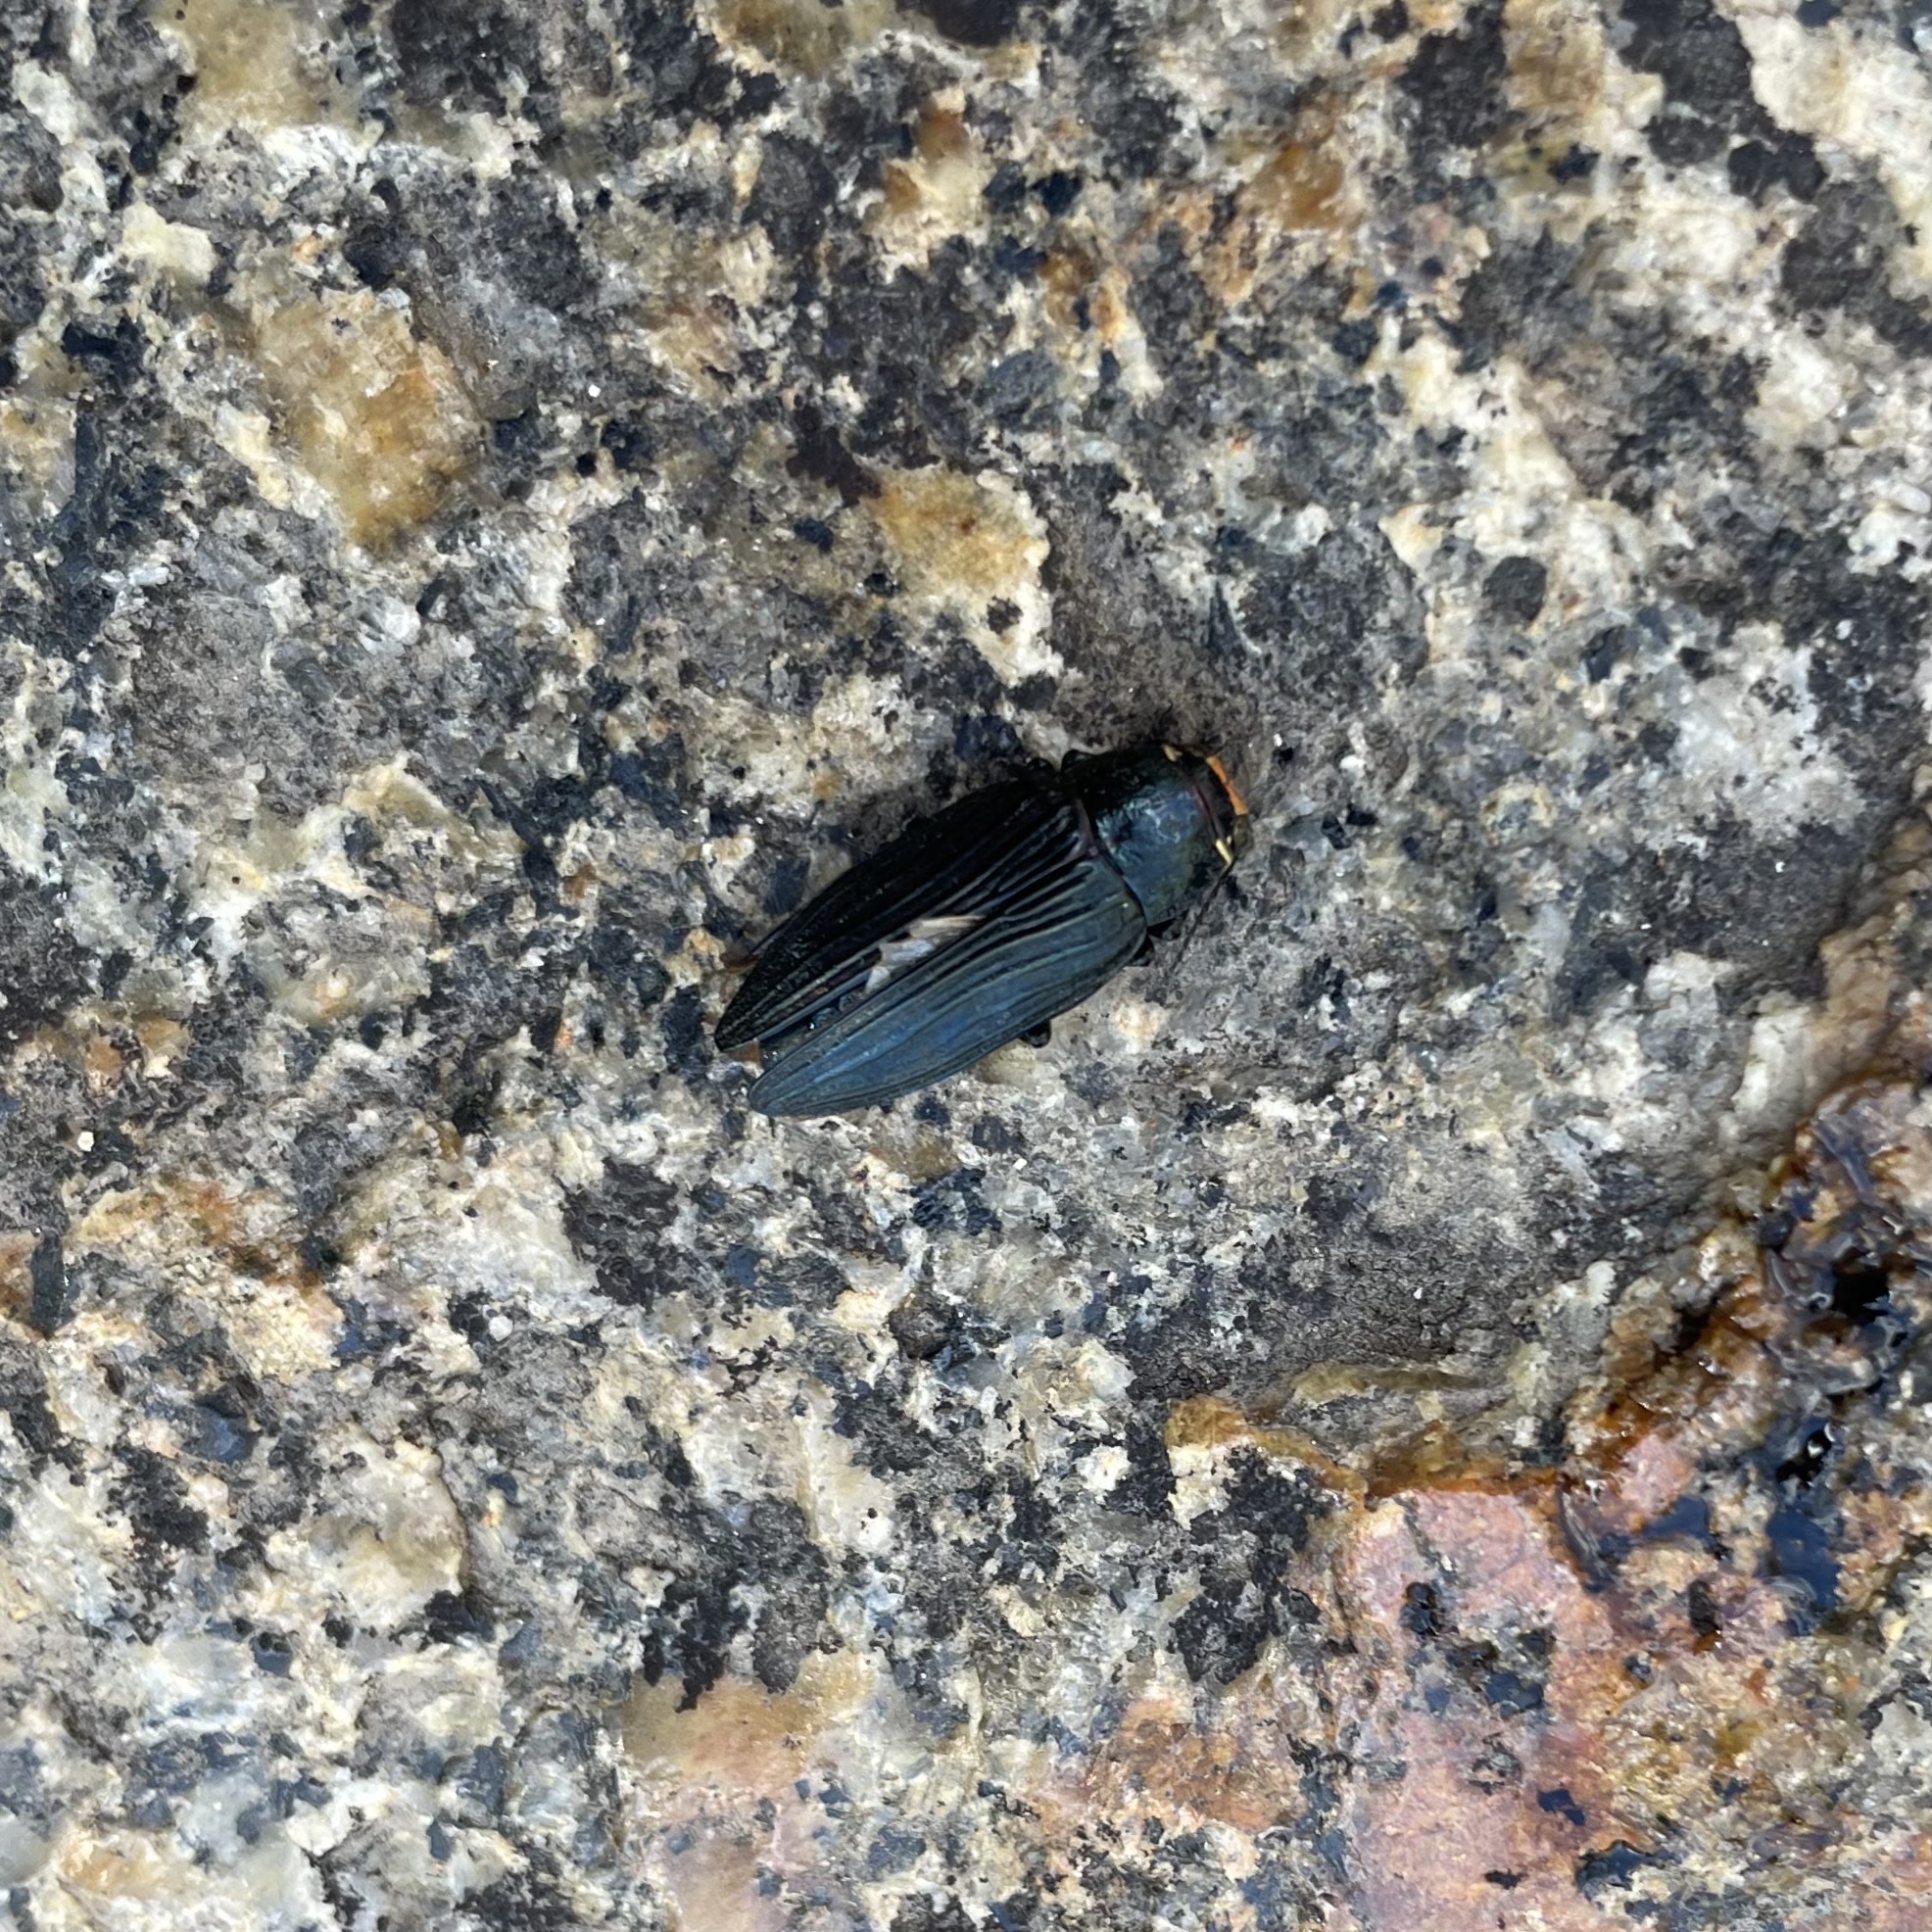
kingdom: Animalia
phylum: Arthropoda
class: Insecta
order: Coleoptera
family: Buprestidae
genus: Buprestis
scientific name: Buprestis lyrata
